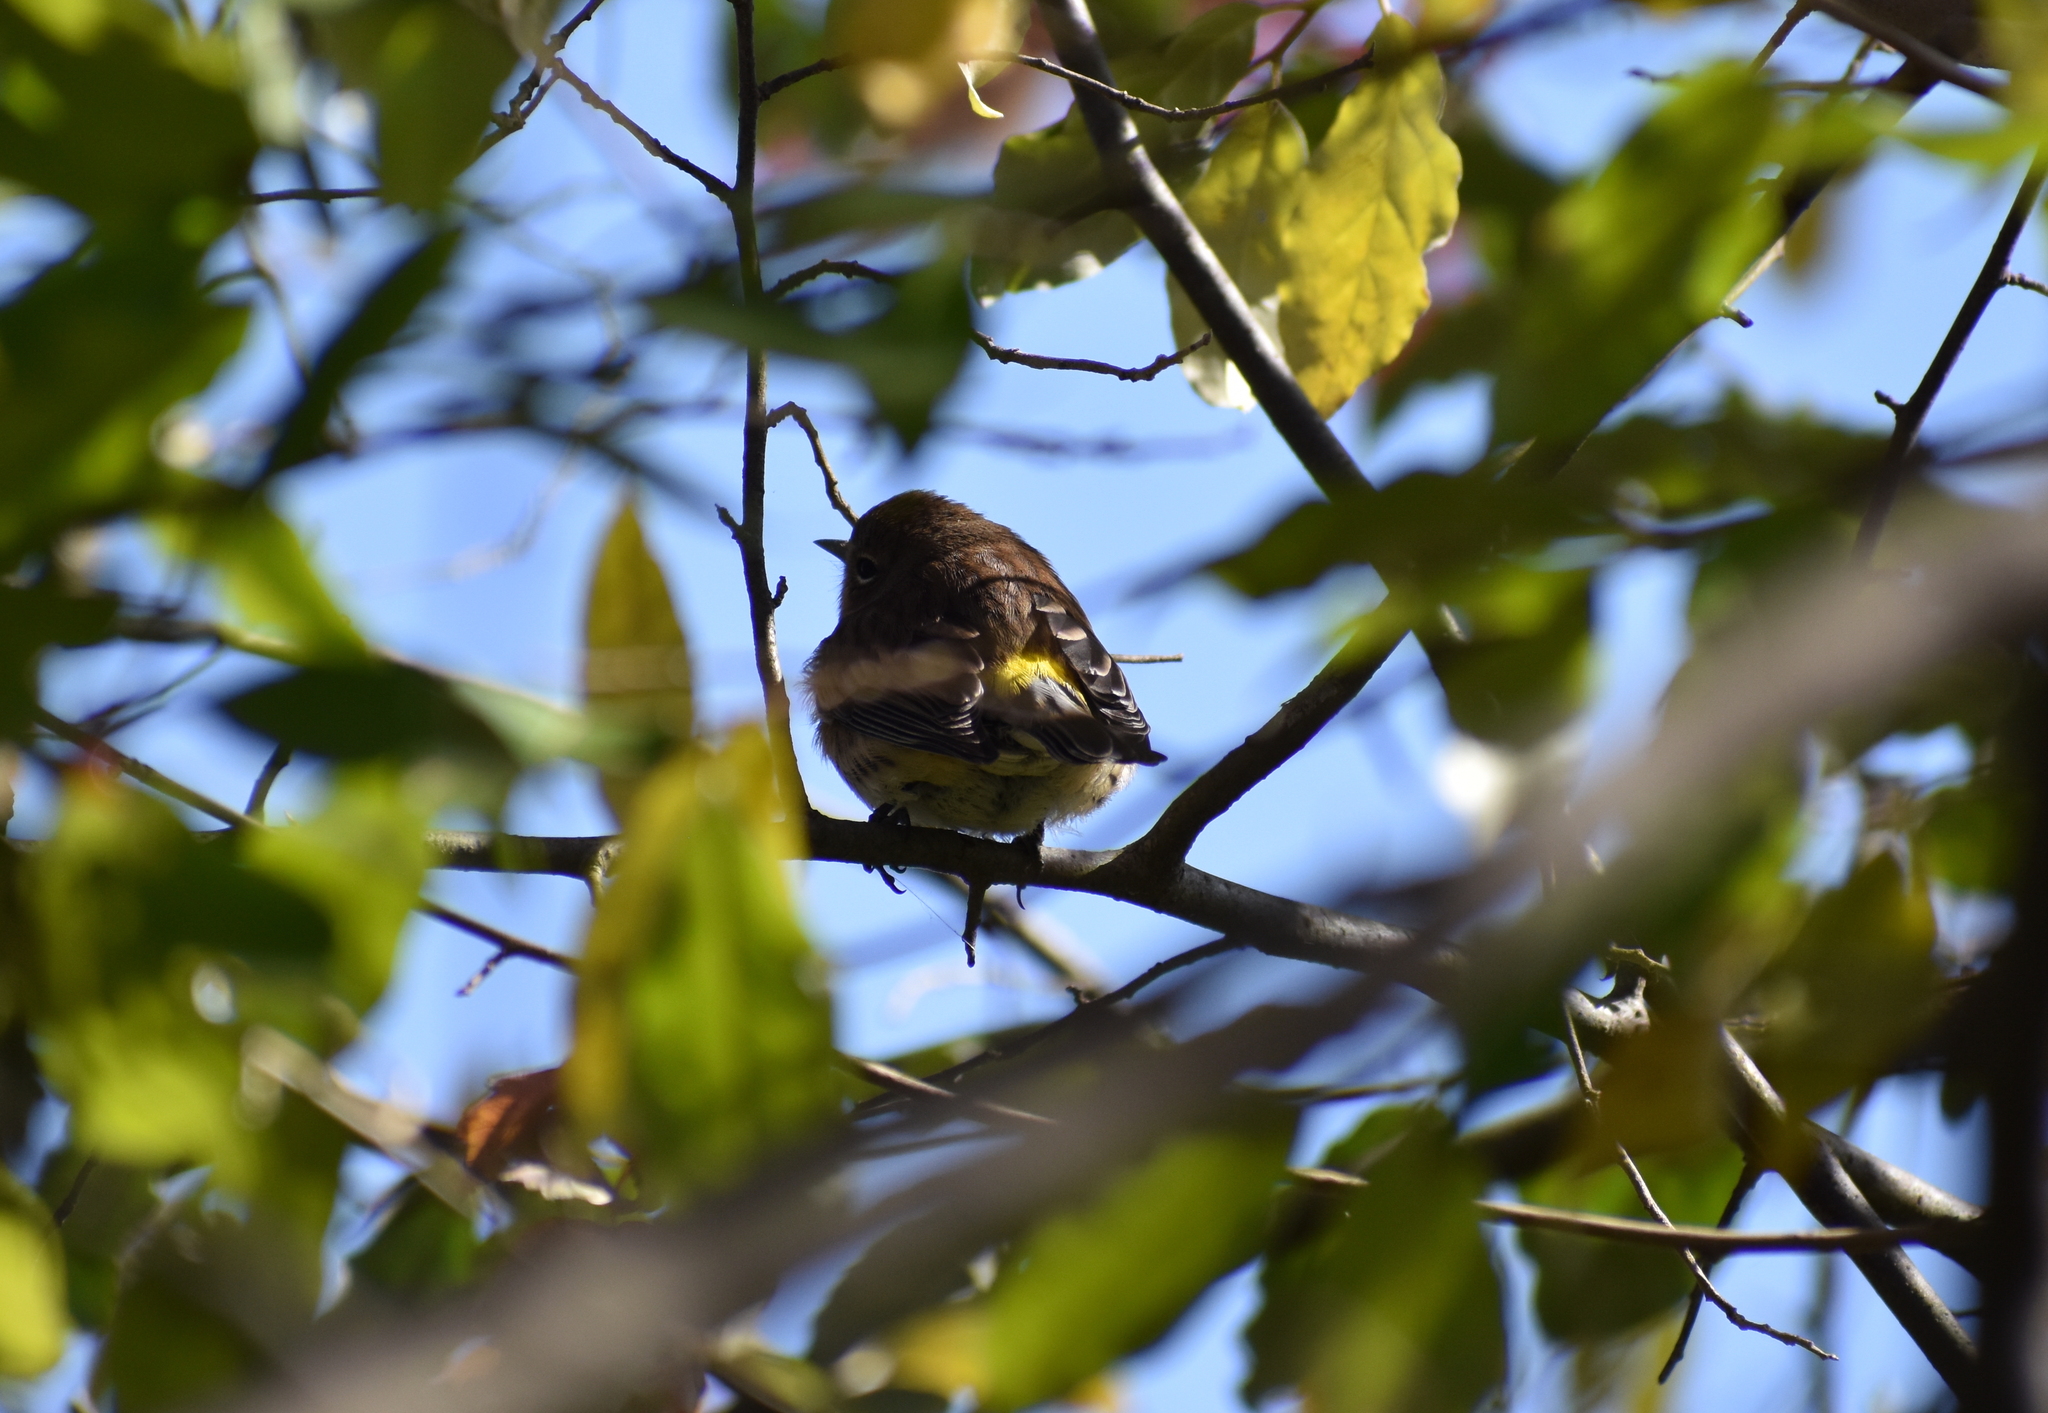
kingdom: Animalia
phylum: Chordata
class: Aves
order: Passeriformes
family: Parulidae
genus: Setophaga
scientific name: Setophaga coronata
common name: Myrtle warbler
